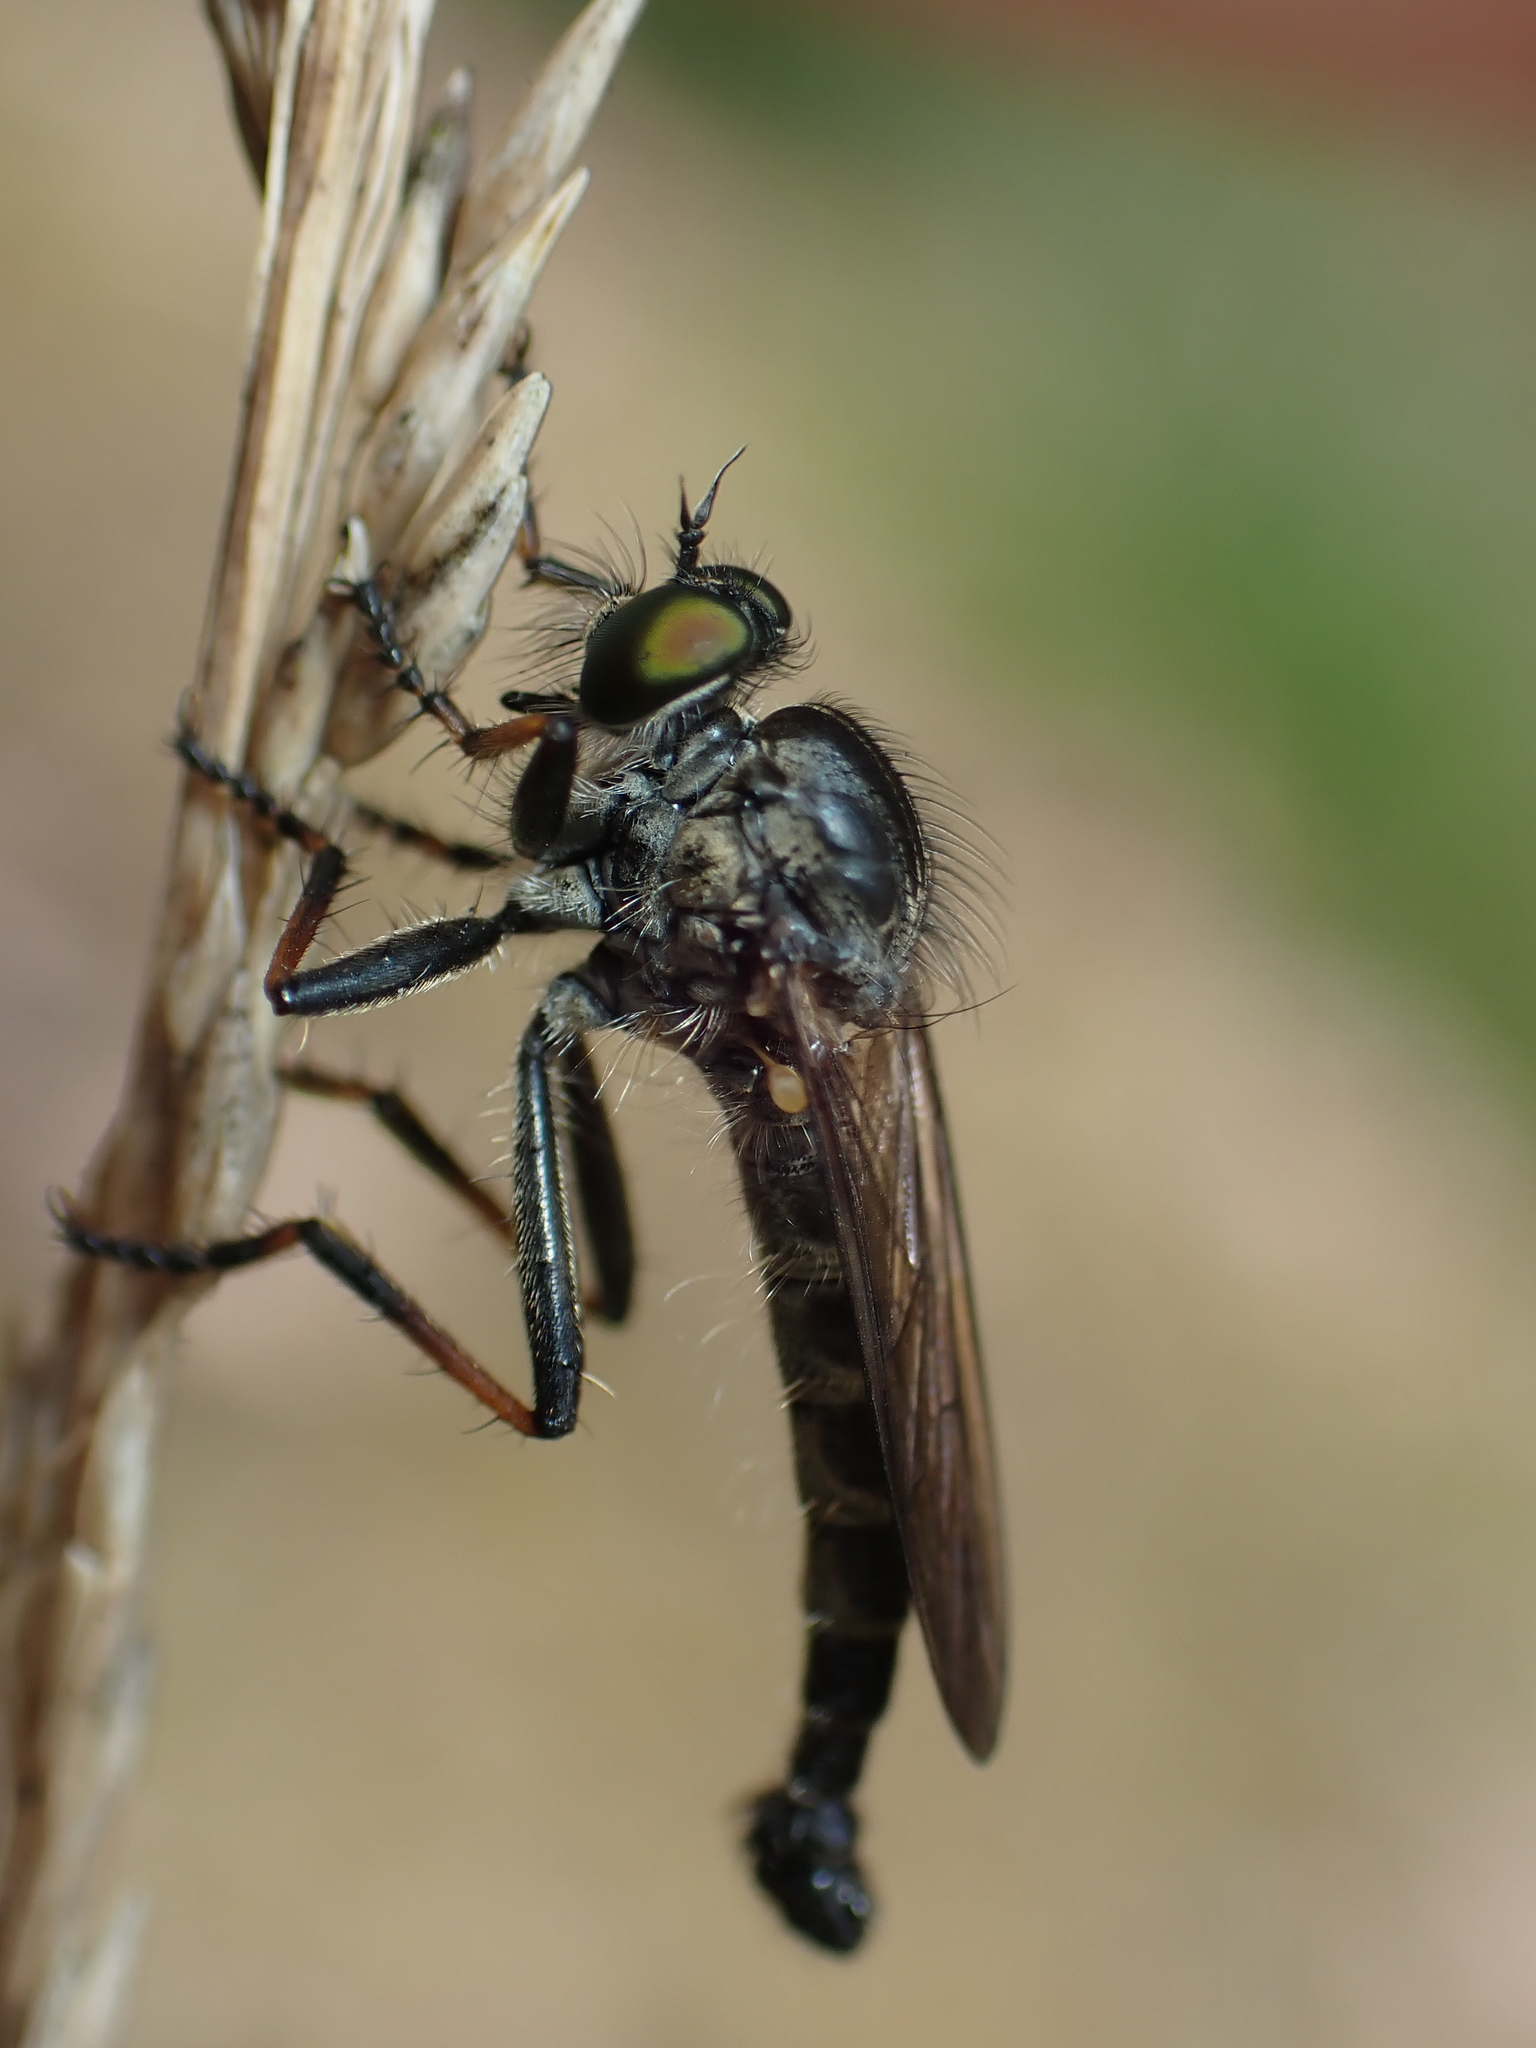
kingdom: Animalia
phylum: Arthropoda
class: Insecta
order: Diptera
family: Asilidae
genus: Neoitamus
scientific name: Neoitamus socius
